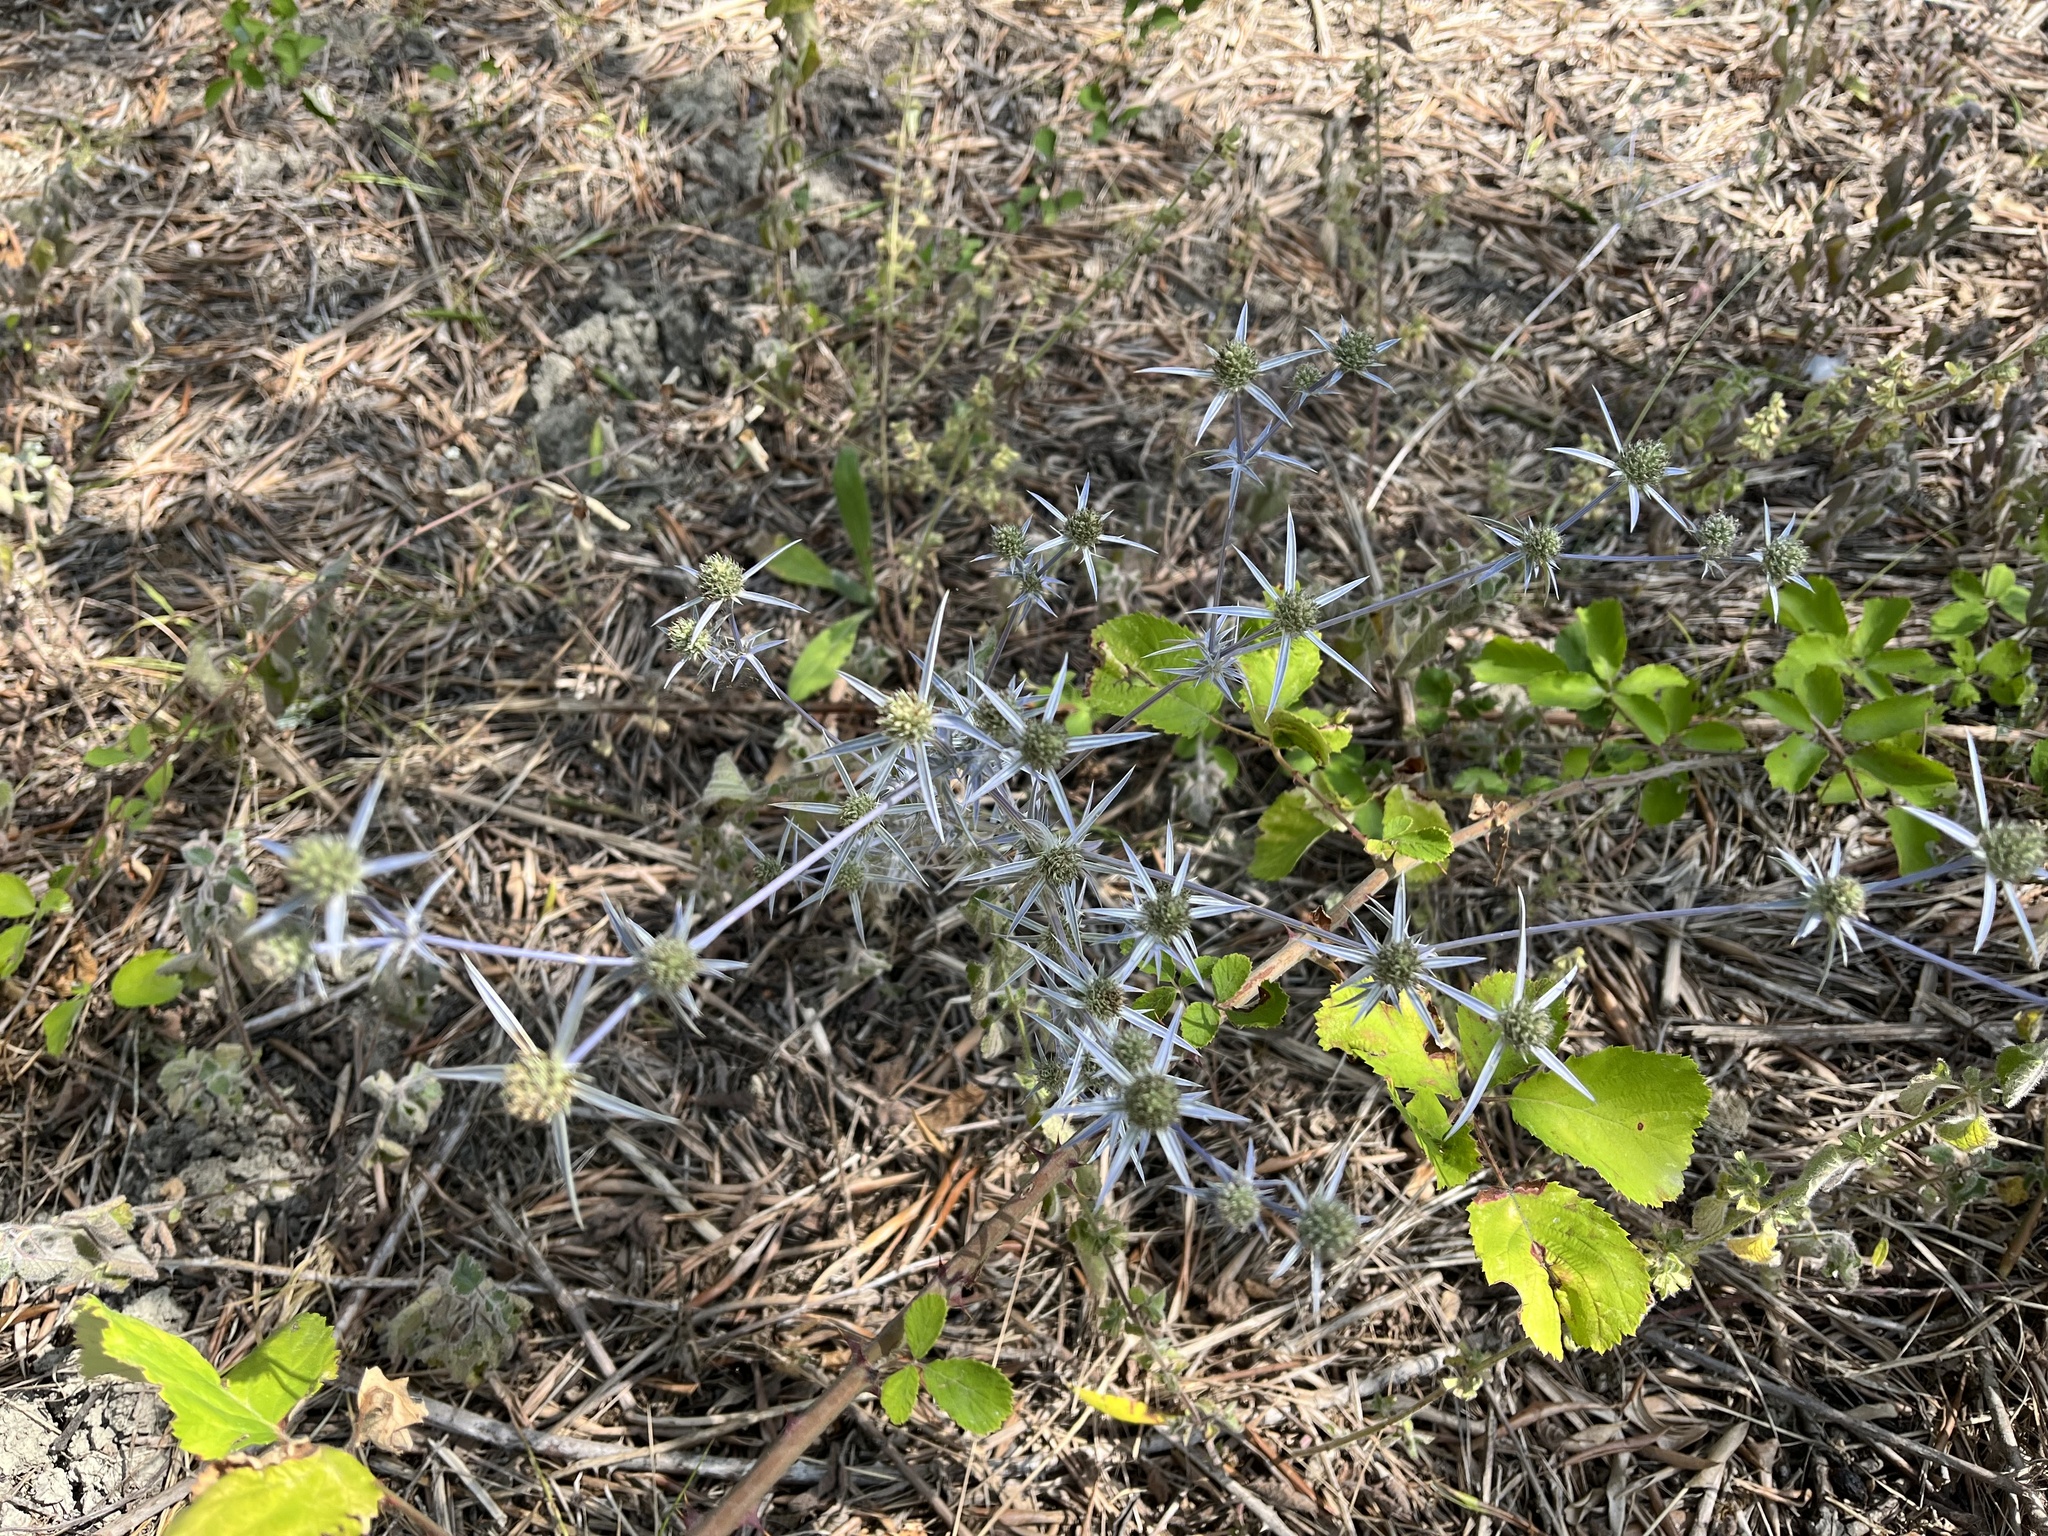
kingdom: Plantae
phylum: Tracheophyta
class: Magnoliopsida
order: Apiales
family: Apiaceae
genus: Eryngium
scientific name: Eryngium creticum
